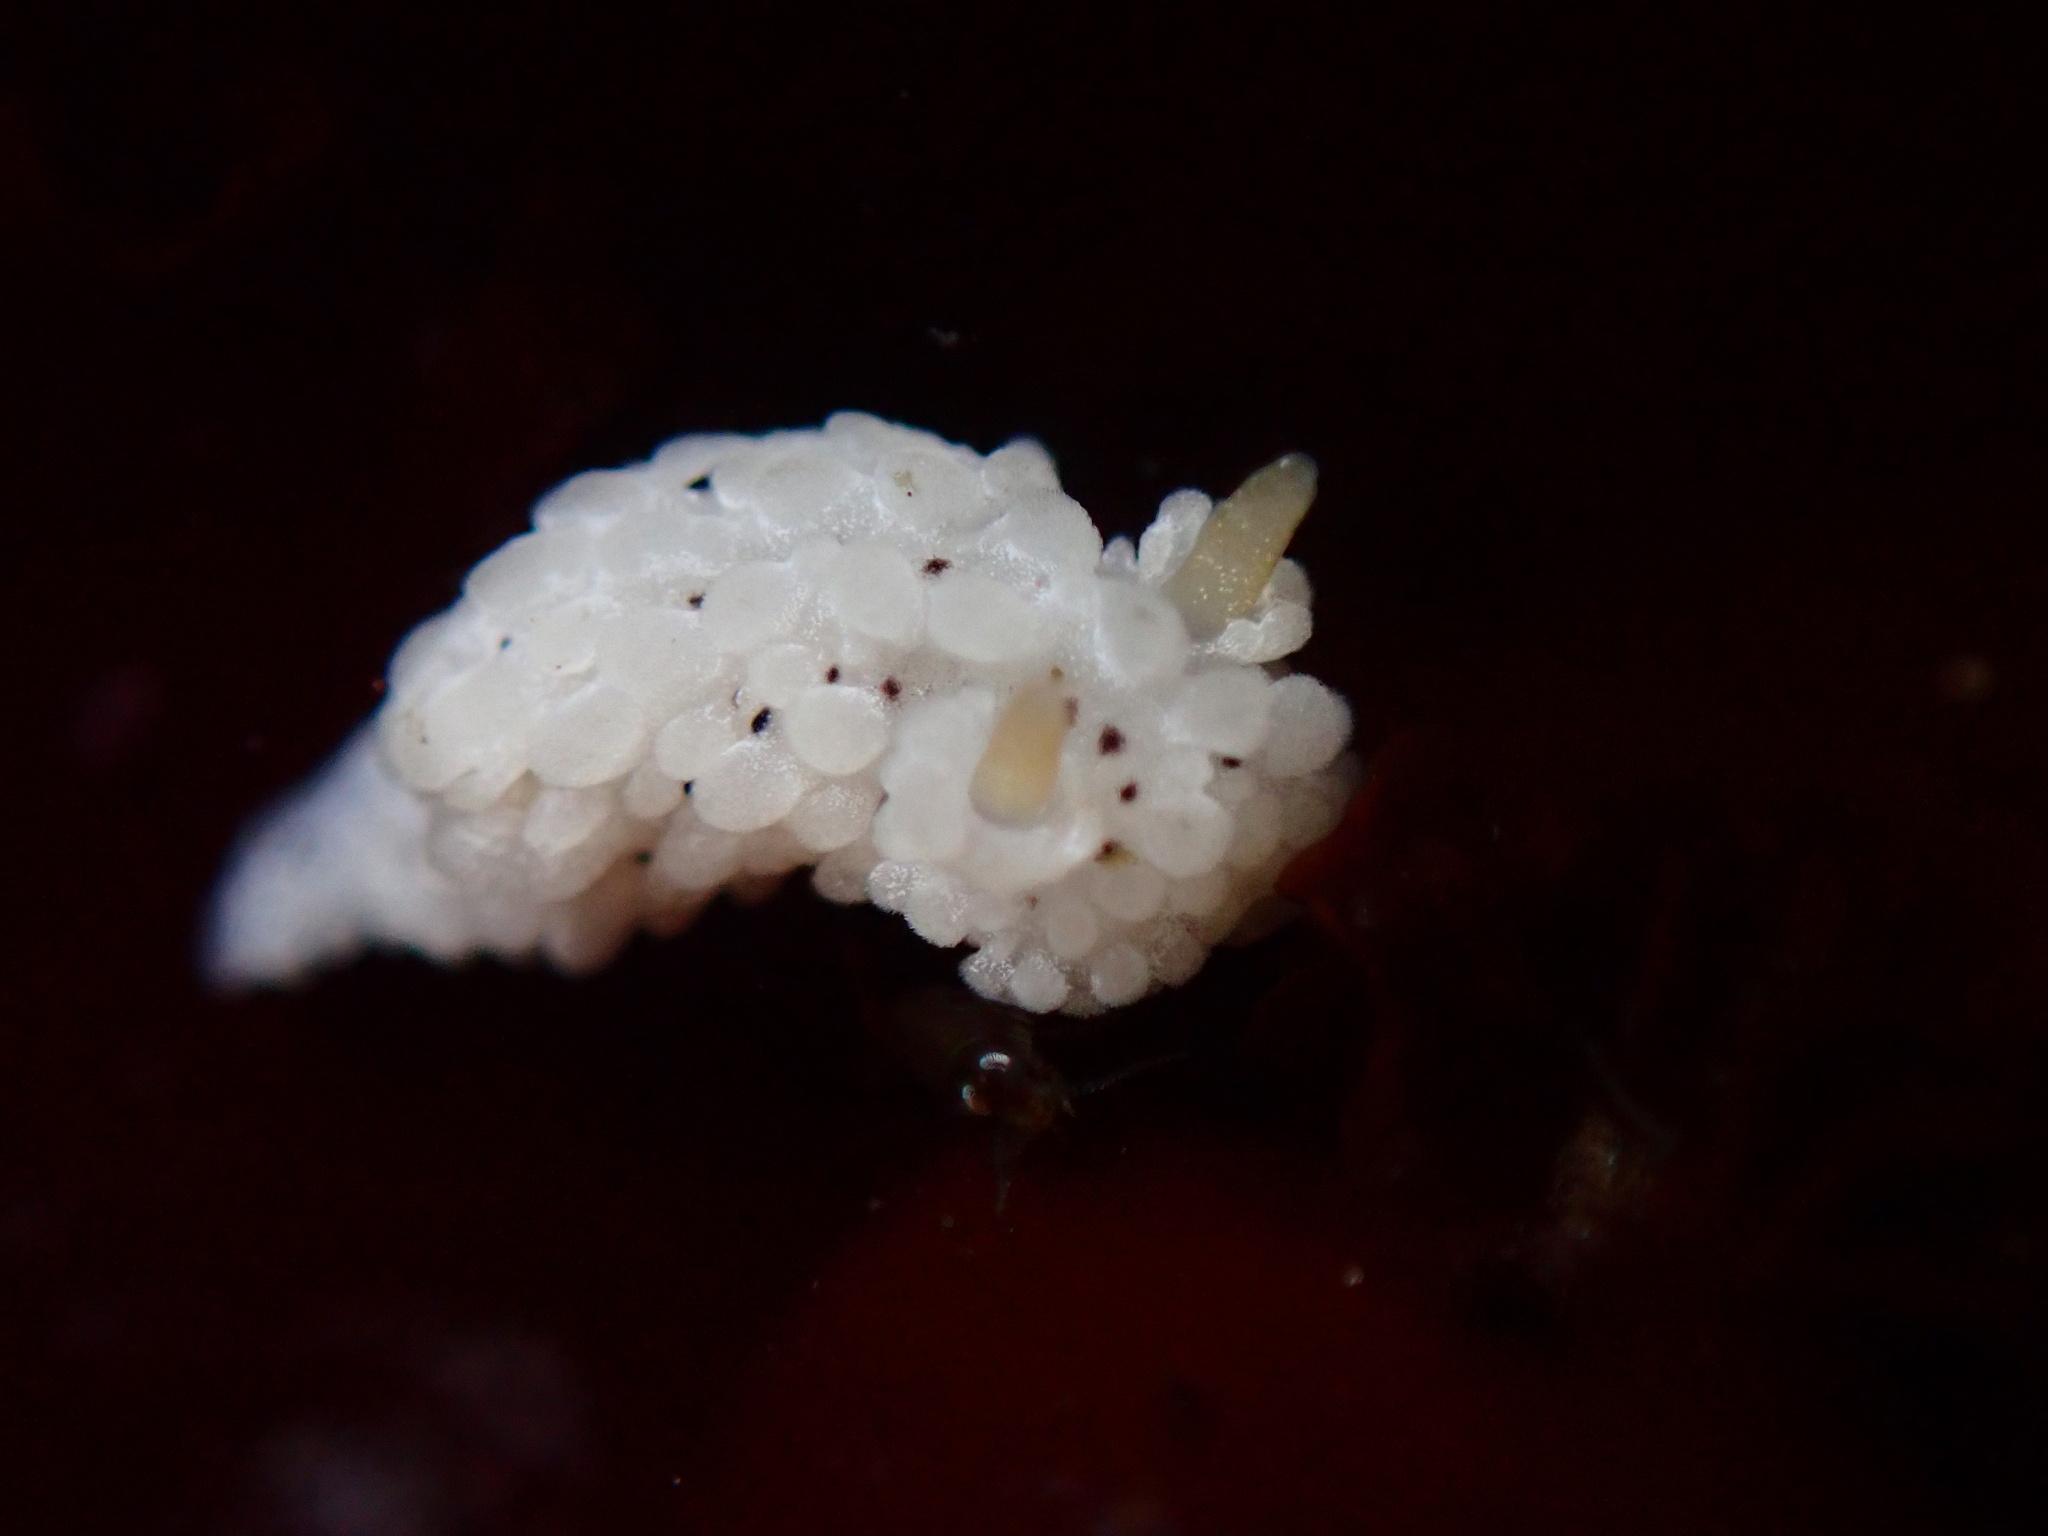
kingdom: Animalia
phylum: Mollusca
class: Gastropoda
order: Nudibranchia
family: Aegiridae
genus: Aegires
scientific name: Aegires albopunctatus
